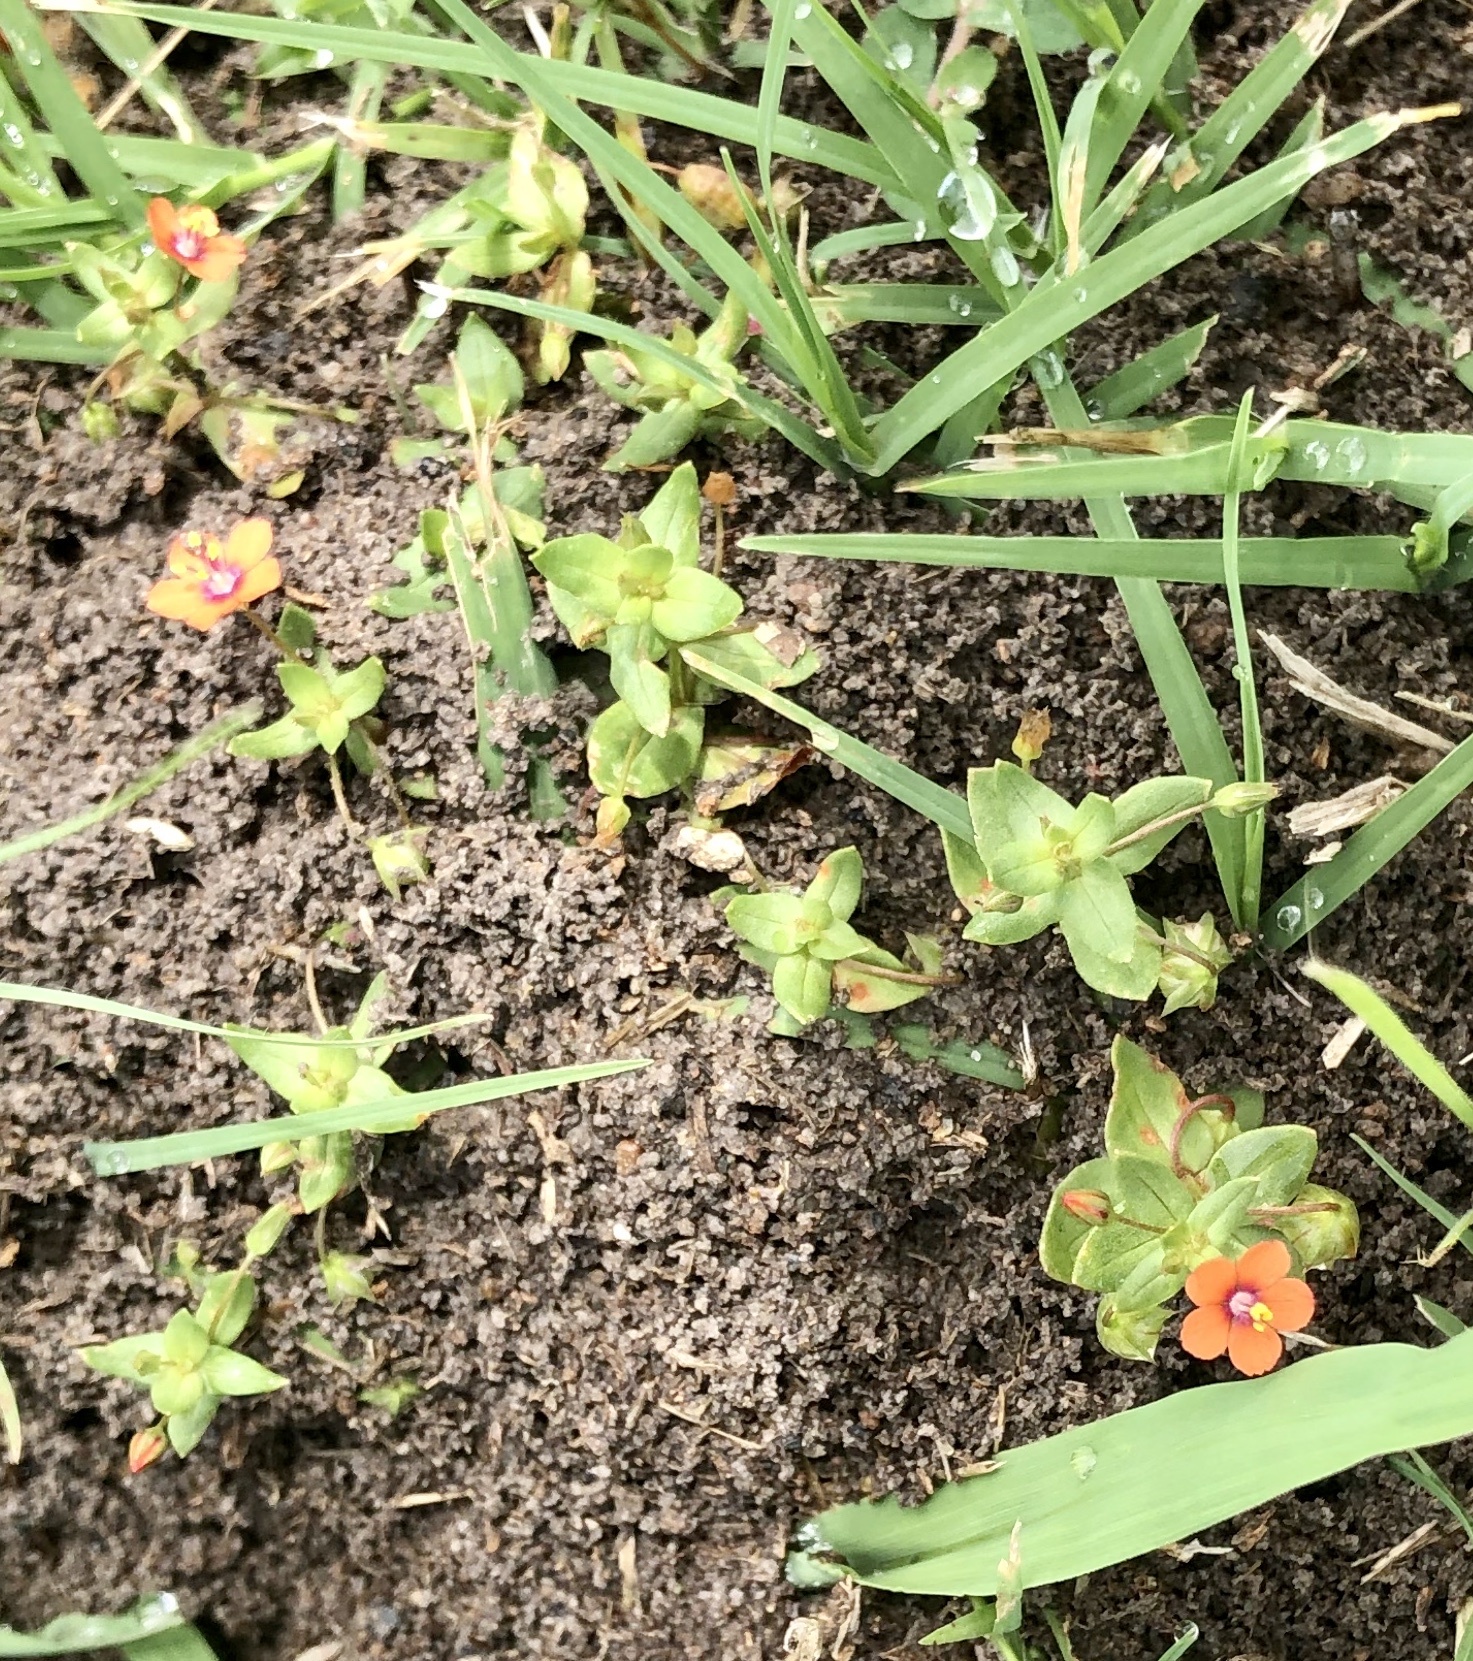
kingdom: Plantae
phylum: Tracheophyta
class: Magnoliopsida
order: Ericales
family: Primulaceae
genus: Lysimachia
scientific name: Lysimachia arvensis
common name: Scarlet pimpernel
